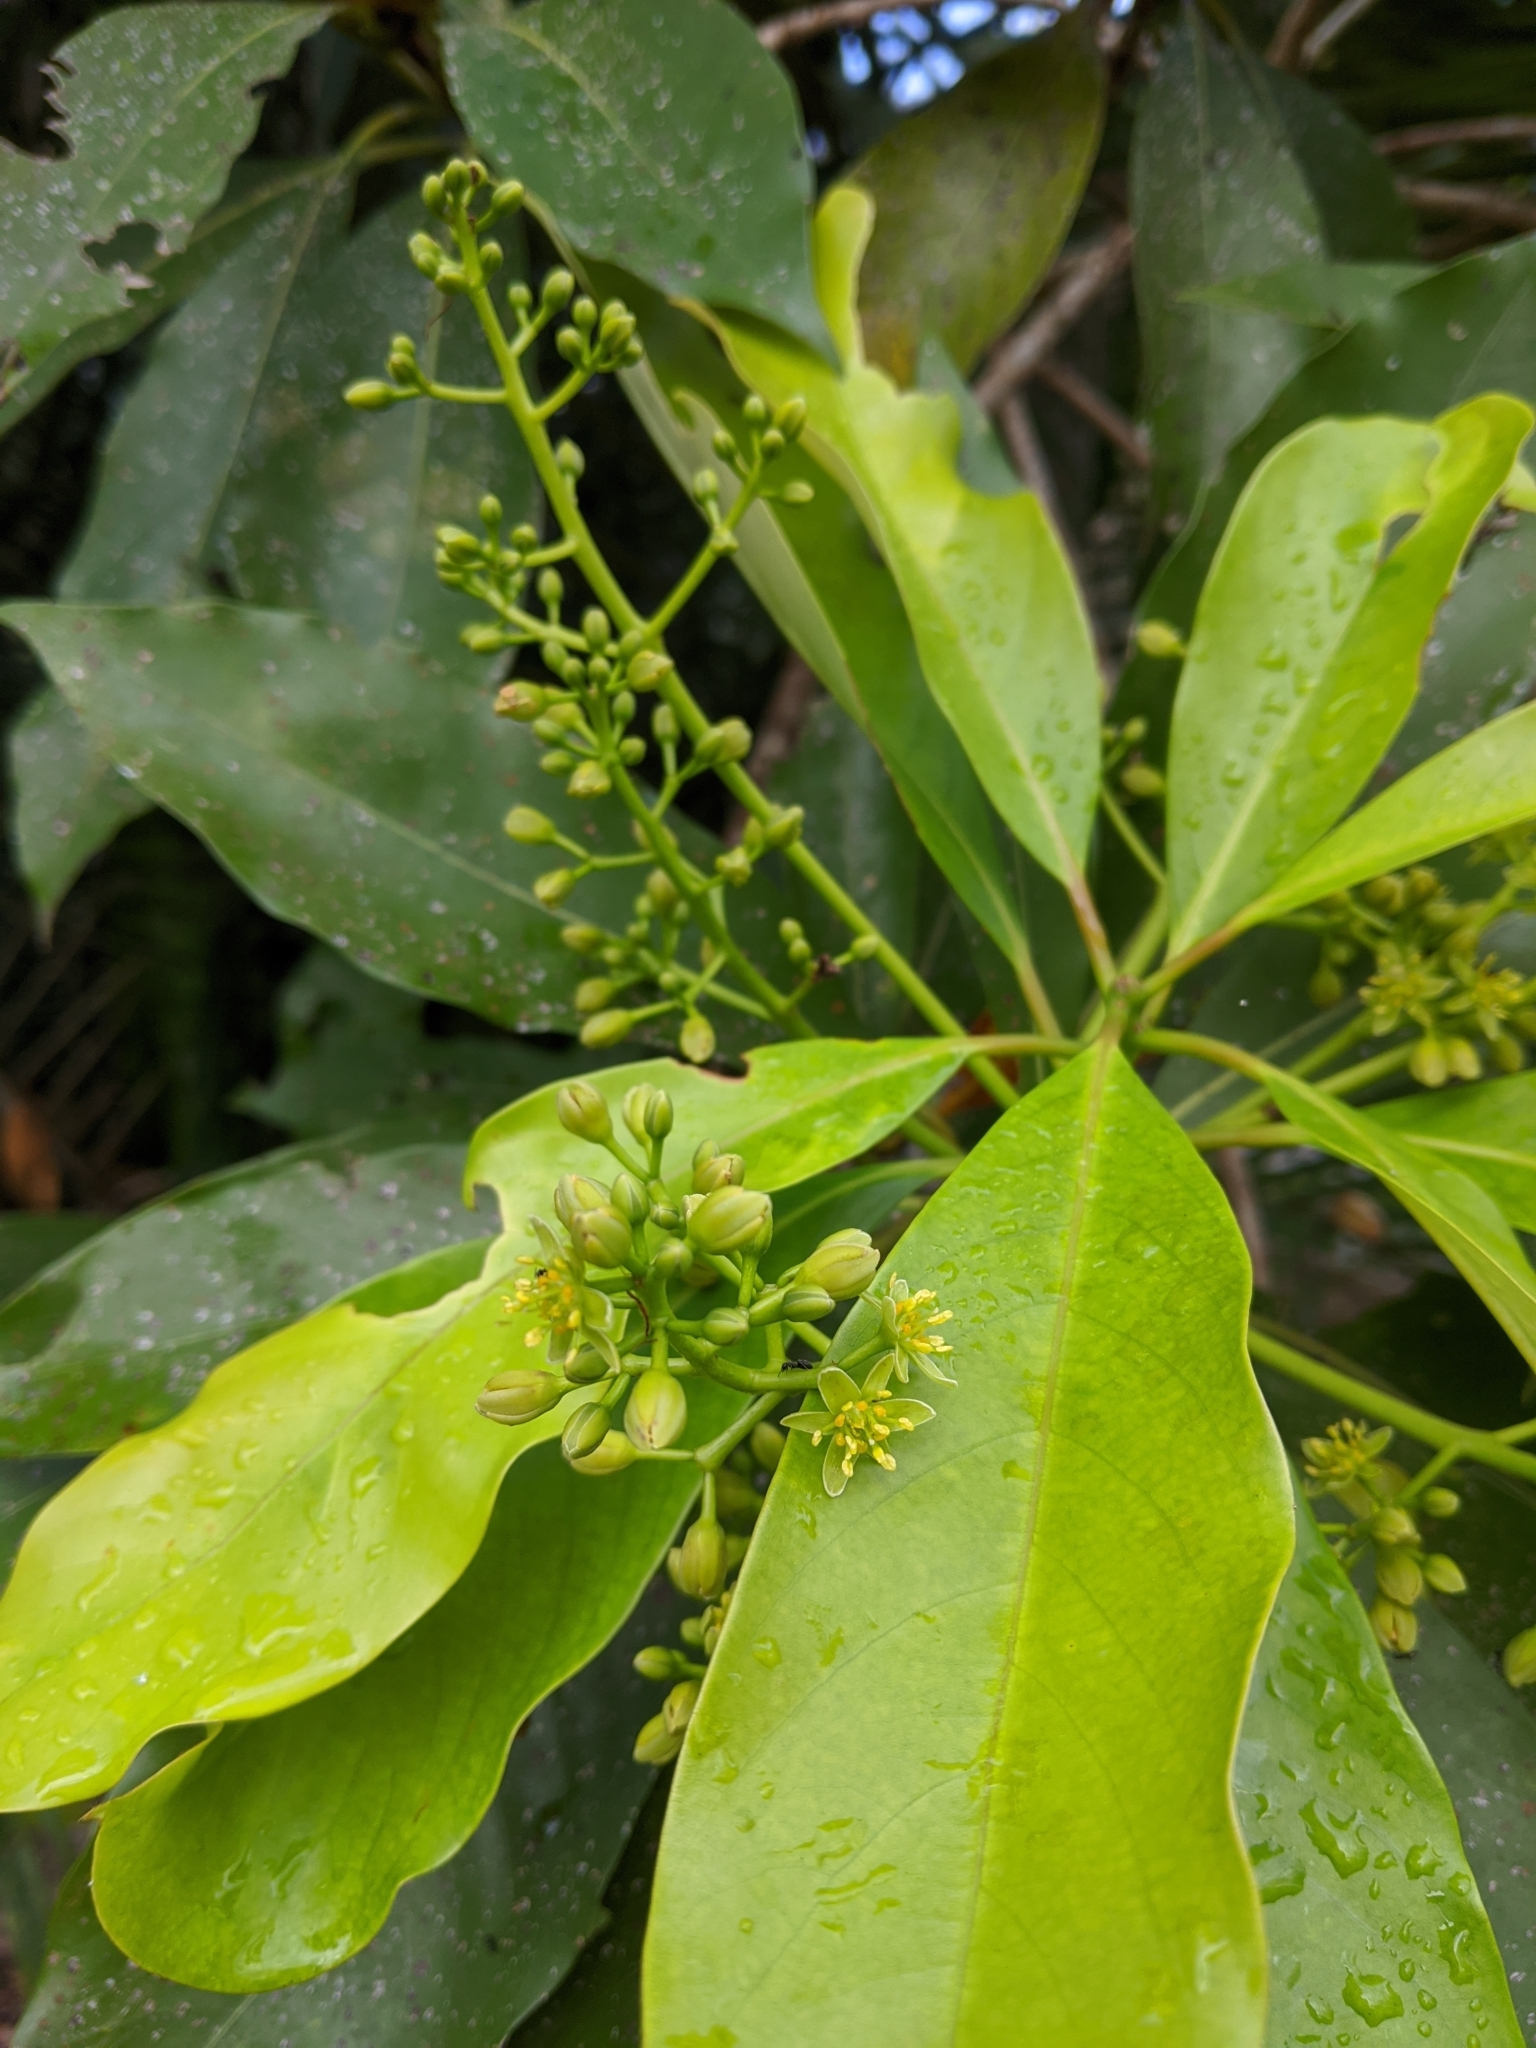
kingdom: Plantae
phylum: Tracheophyta
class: Magnoliopsida
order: Laurales
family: Lauraceae
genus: Machilus
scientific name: Machilus japonica
